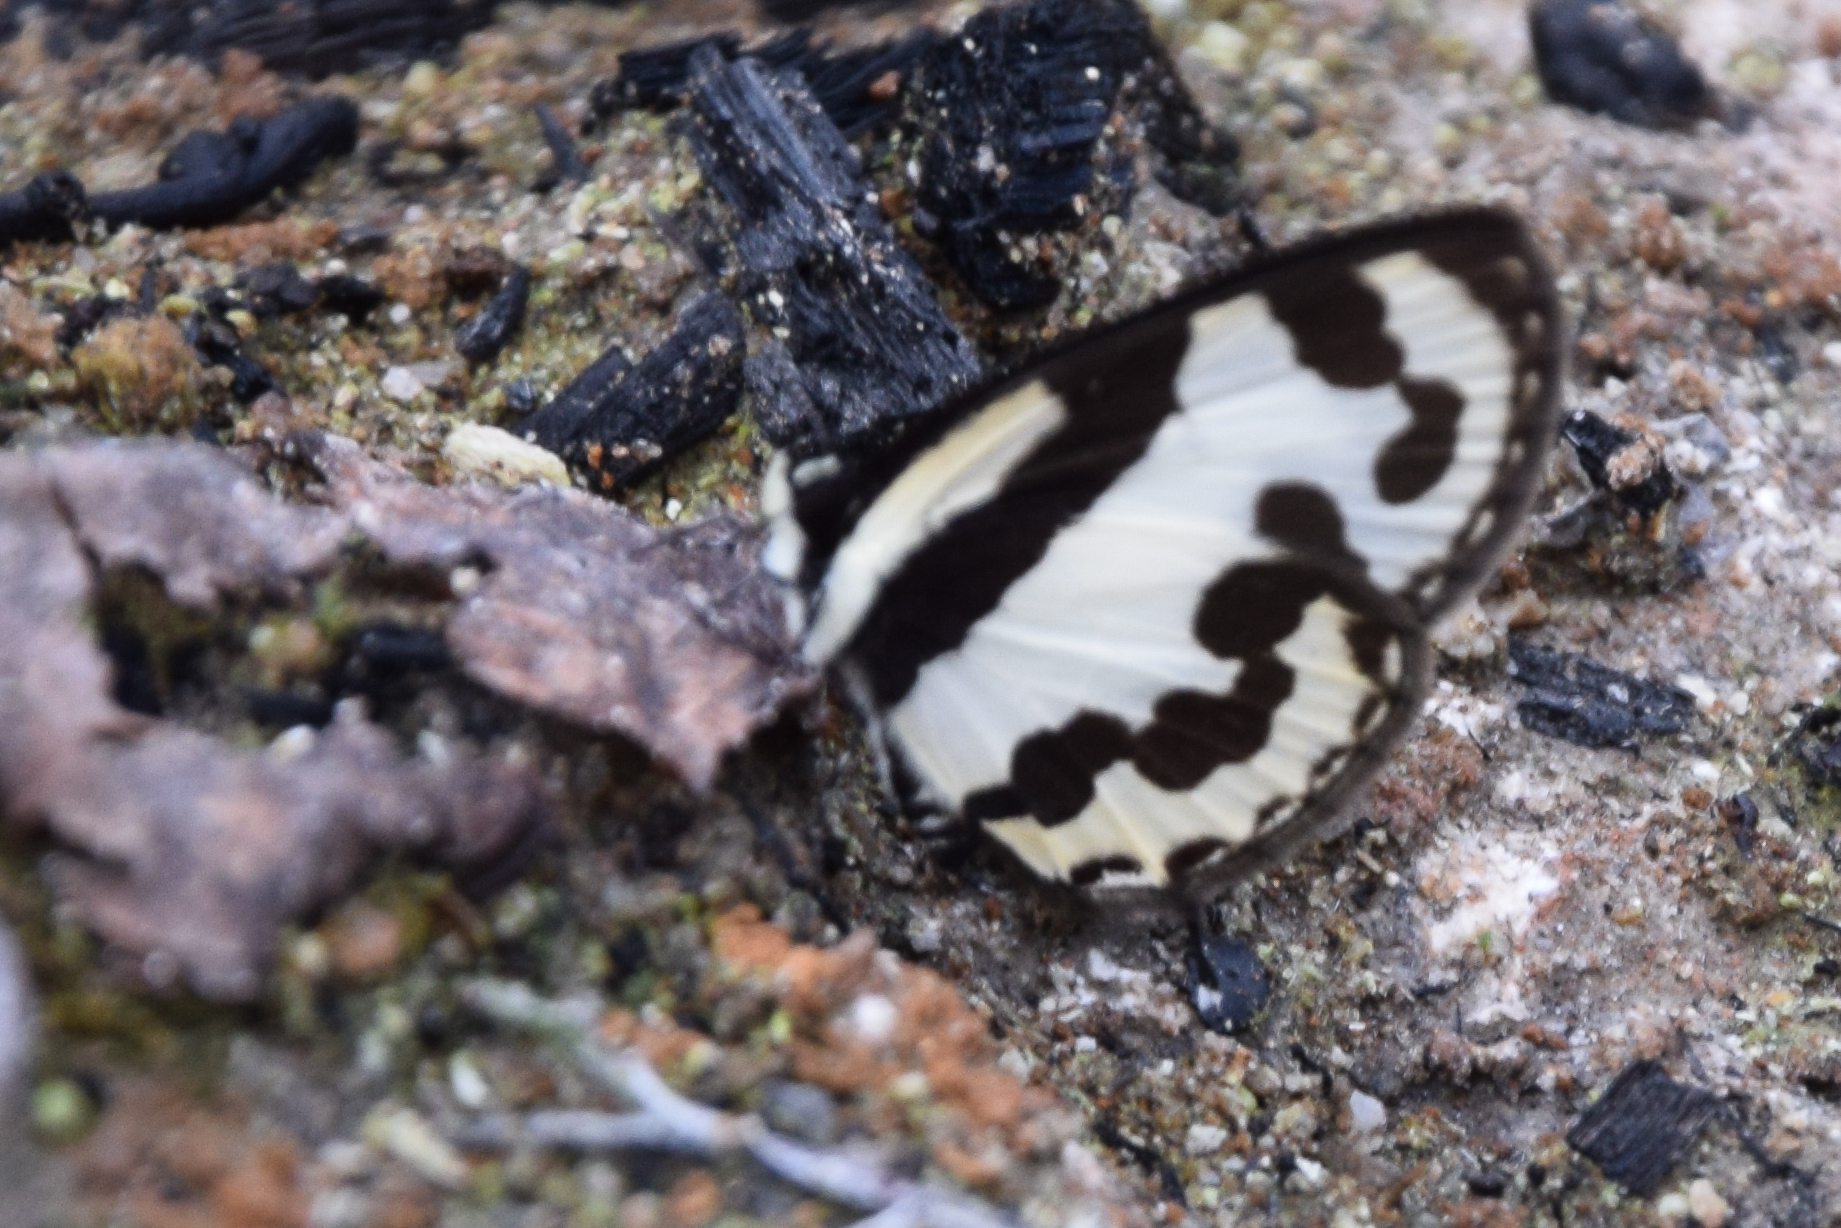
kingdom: Animalia
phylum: Arthropoda
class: Insecta
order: Lepidoptera
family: Lycaenidae
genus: Caleta
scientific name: Caleta
